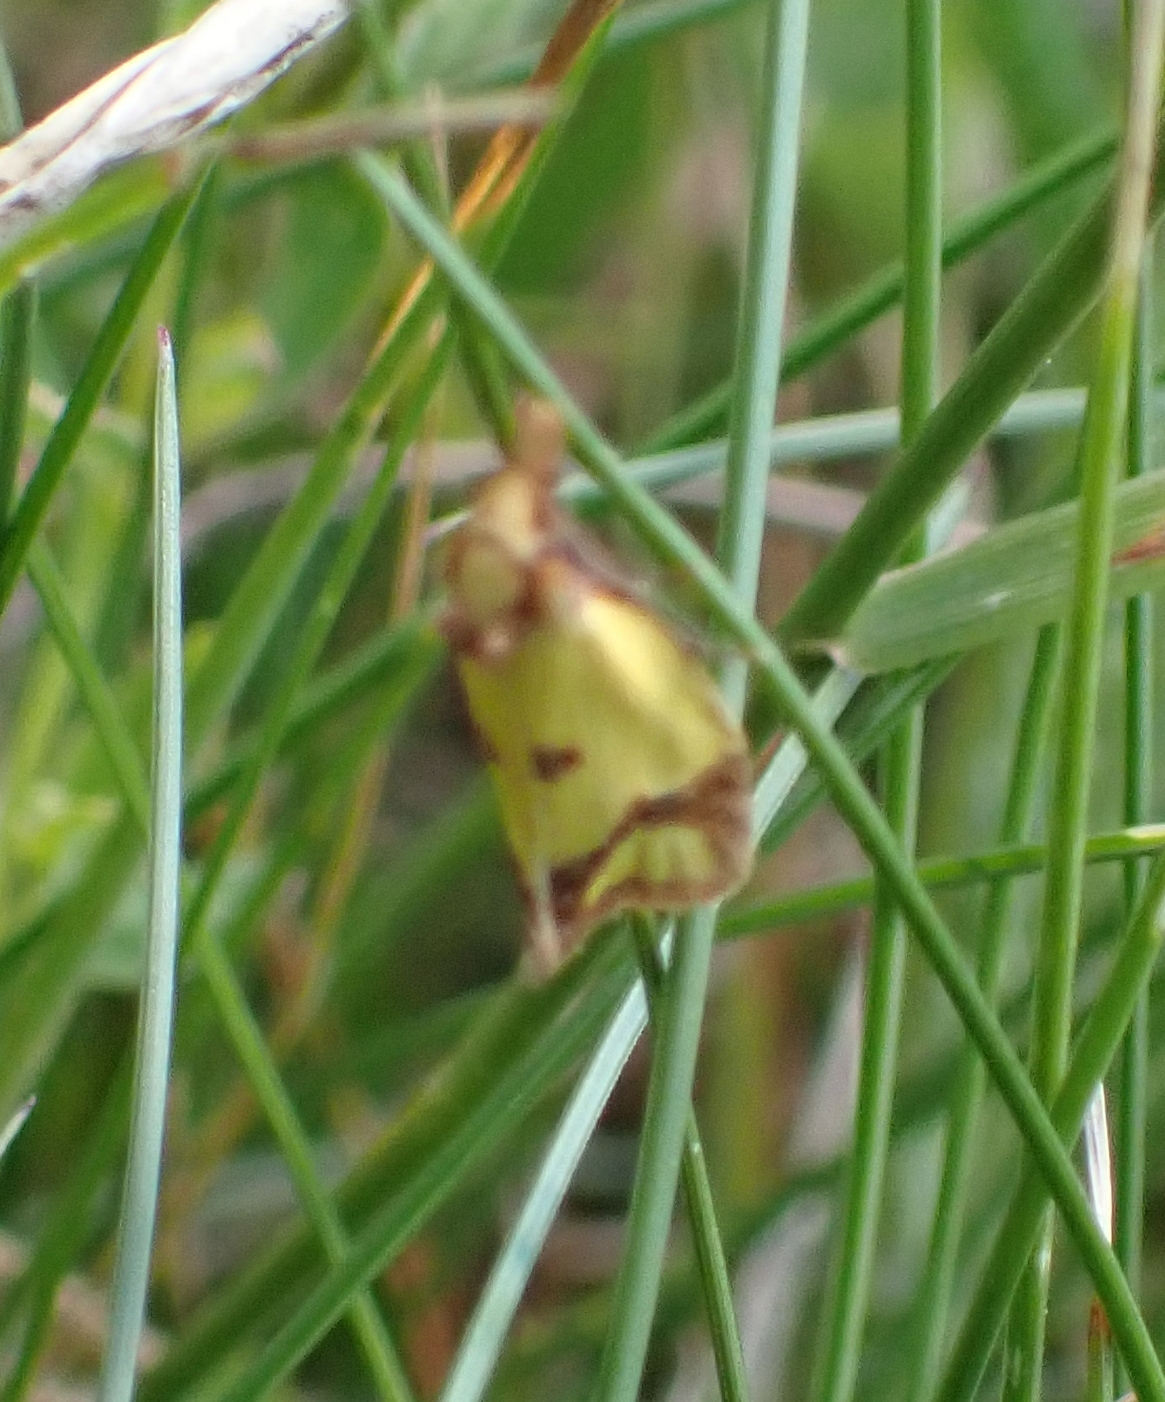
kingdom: Animalia
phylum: Arthropoda
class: Insecta
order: Lepidoptera
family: Tortricidae
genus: Agapeta
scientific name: Agapeta zoegana
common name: Sulfur knapweed root moth
